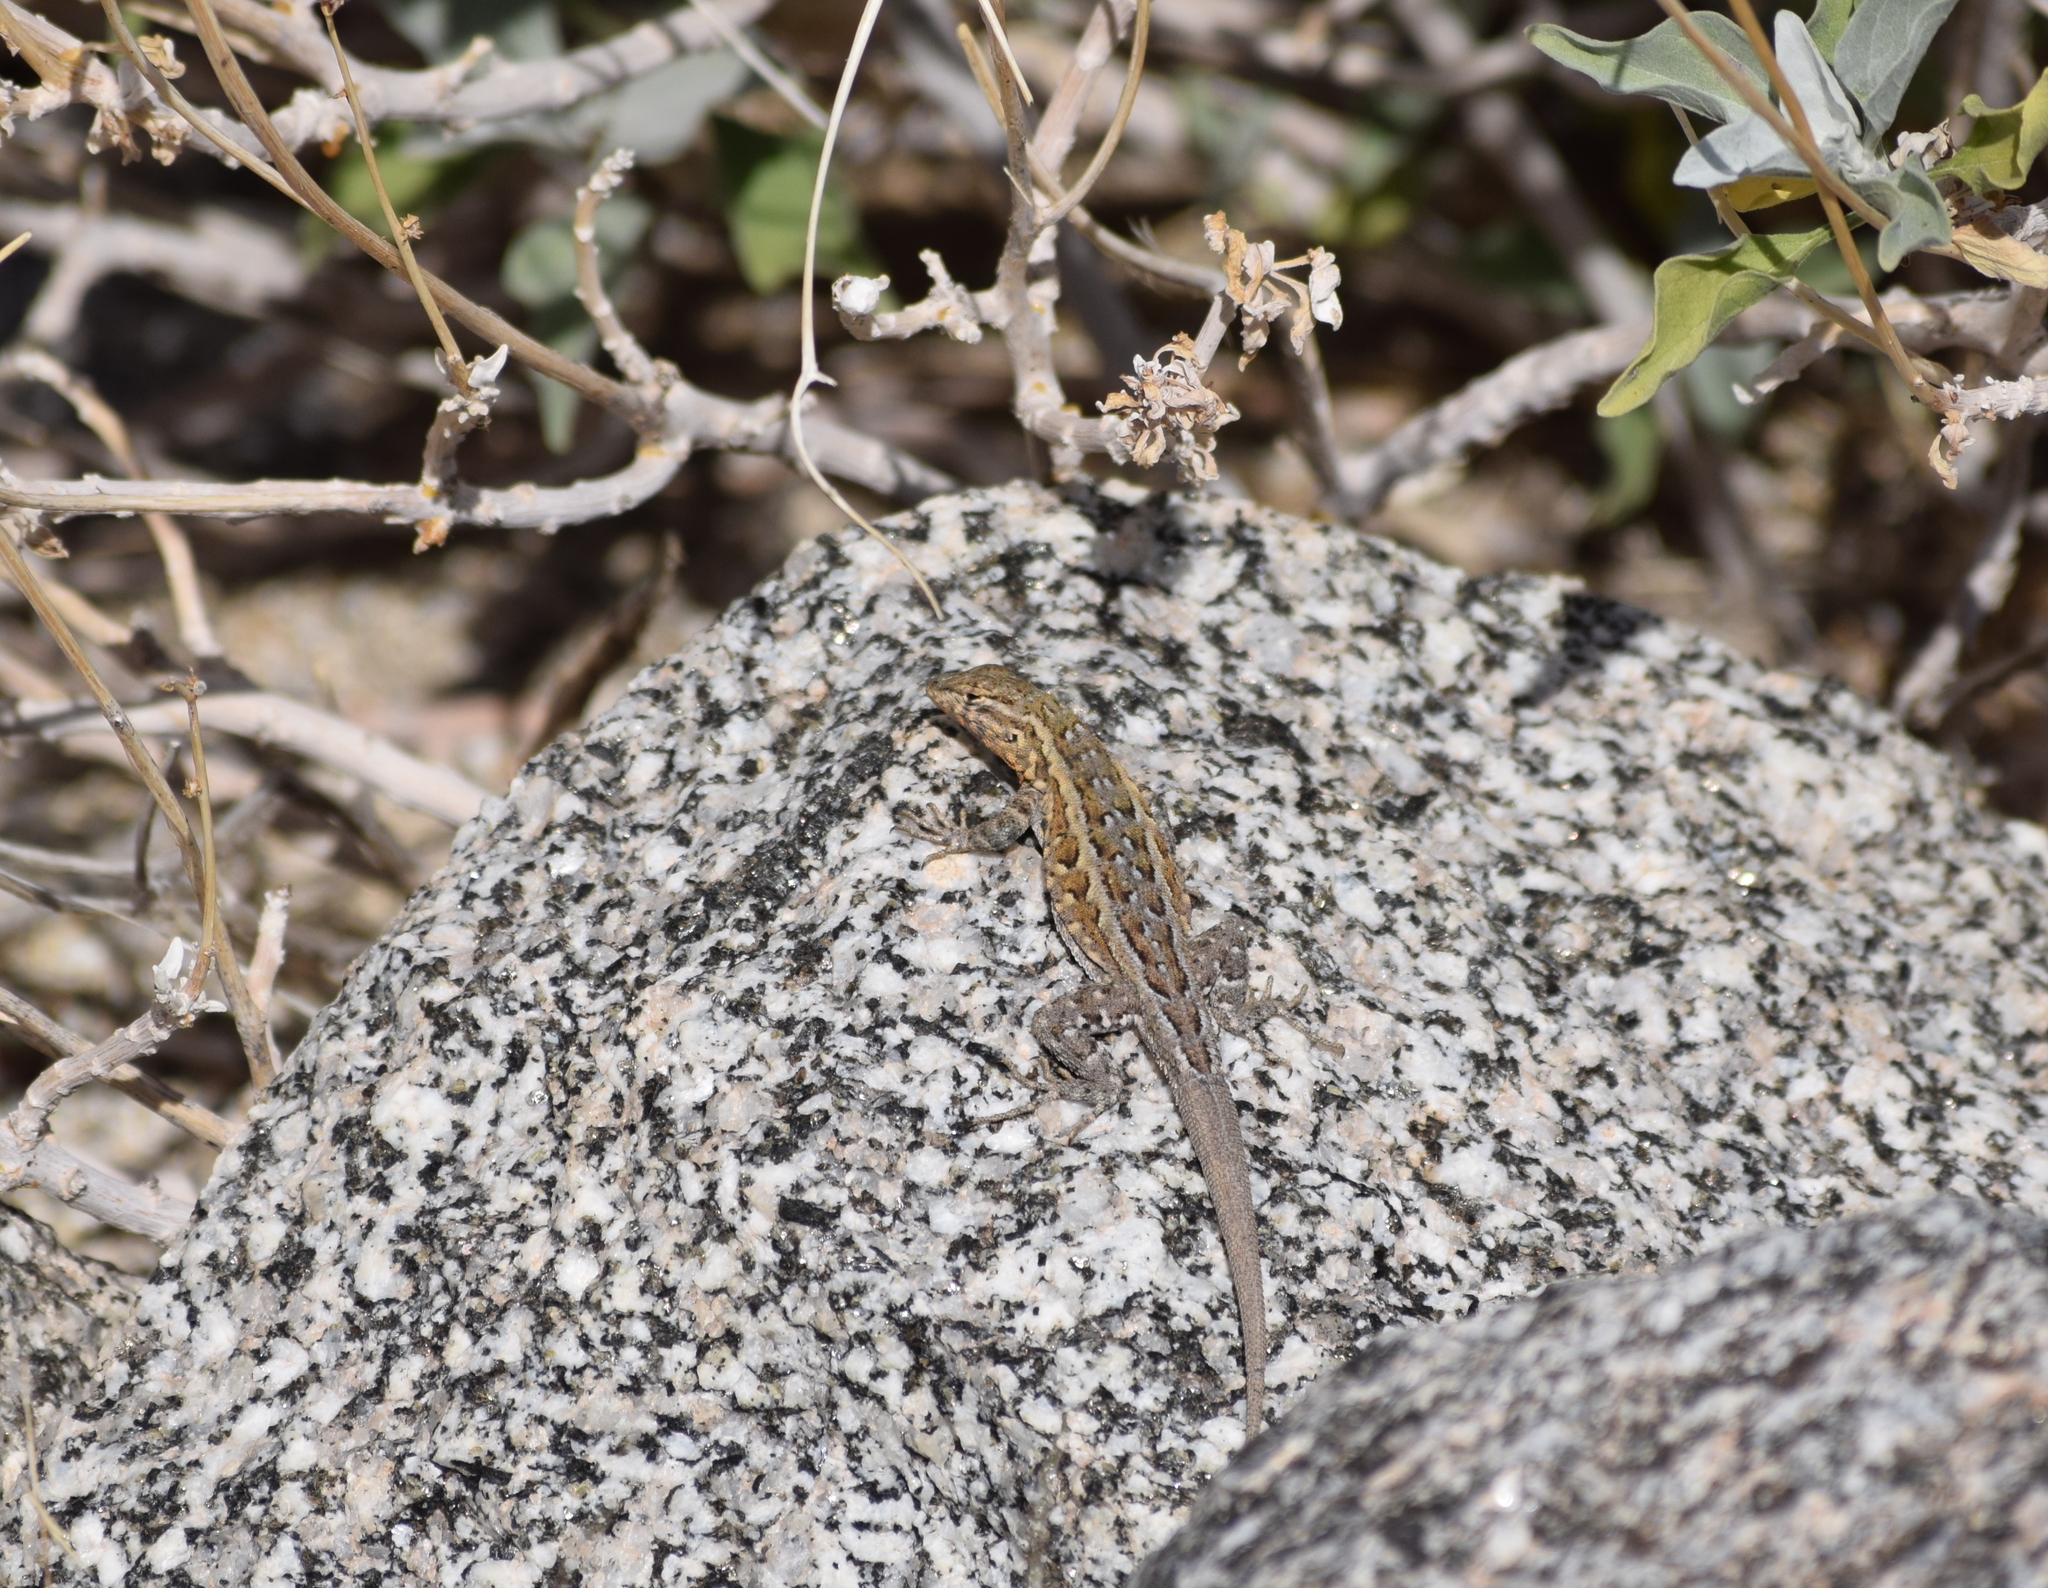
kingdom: Animalia
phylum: Chordata
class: Squamata
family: Phrynosomatidae
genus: Uta
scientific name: Uta stansburiana
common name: Side-blotched lizard
